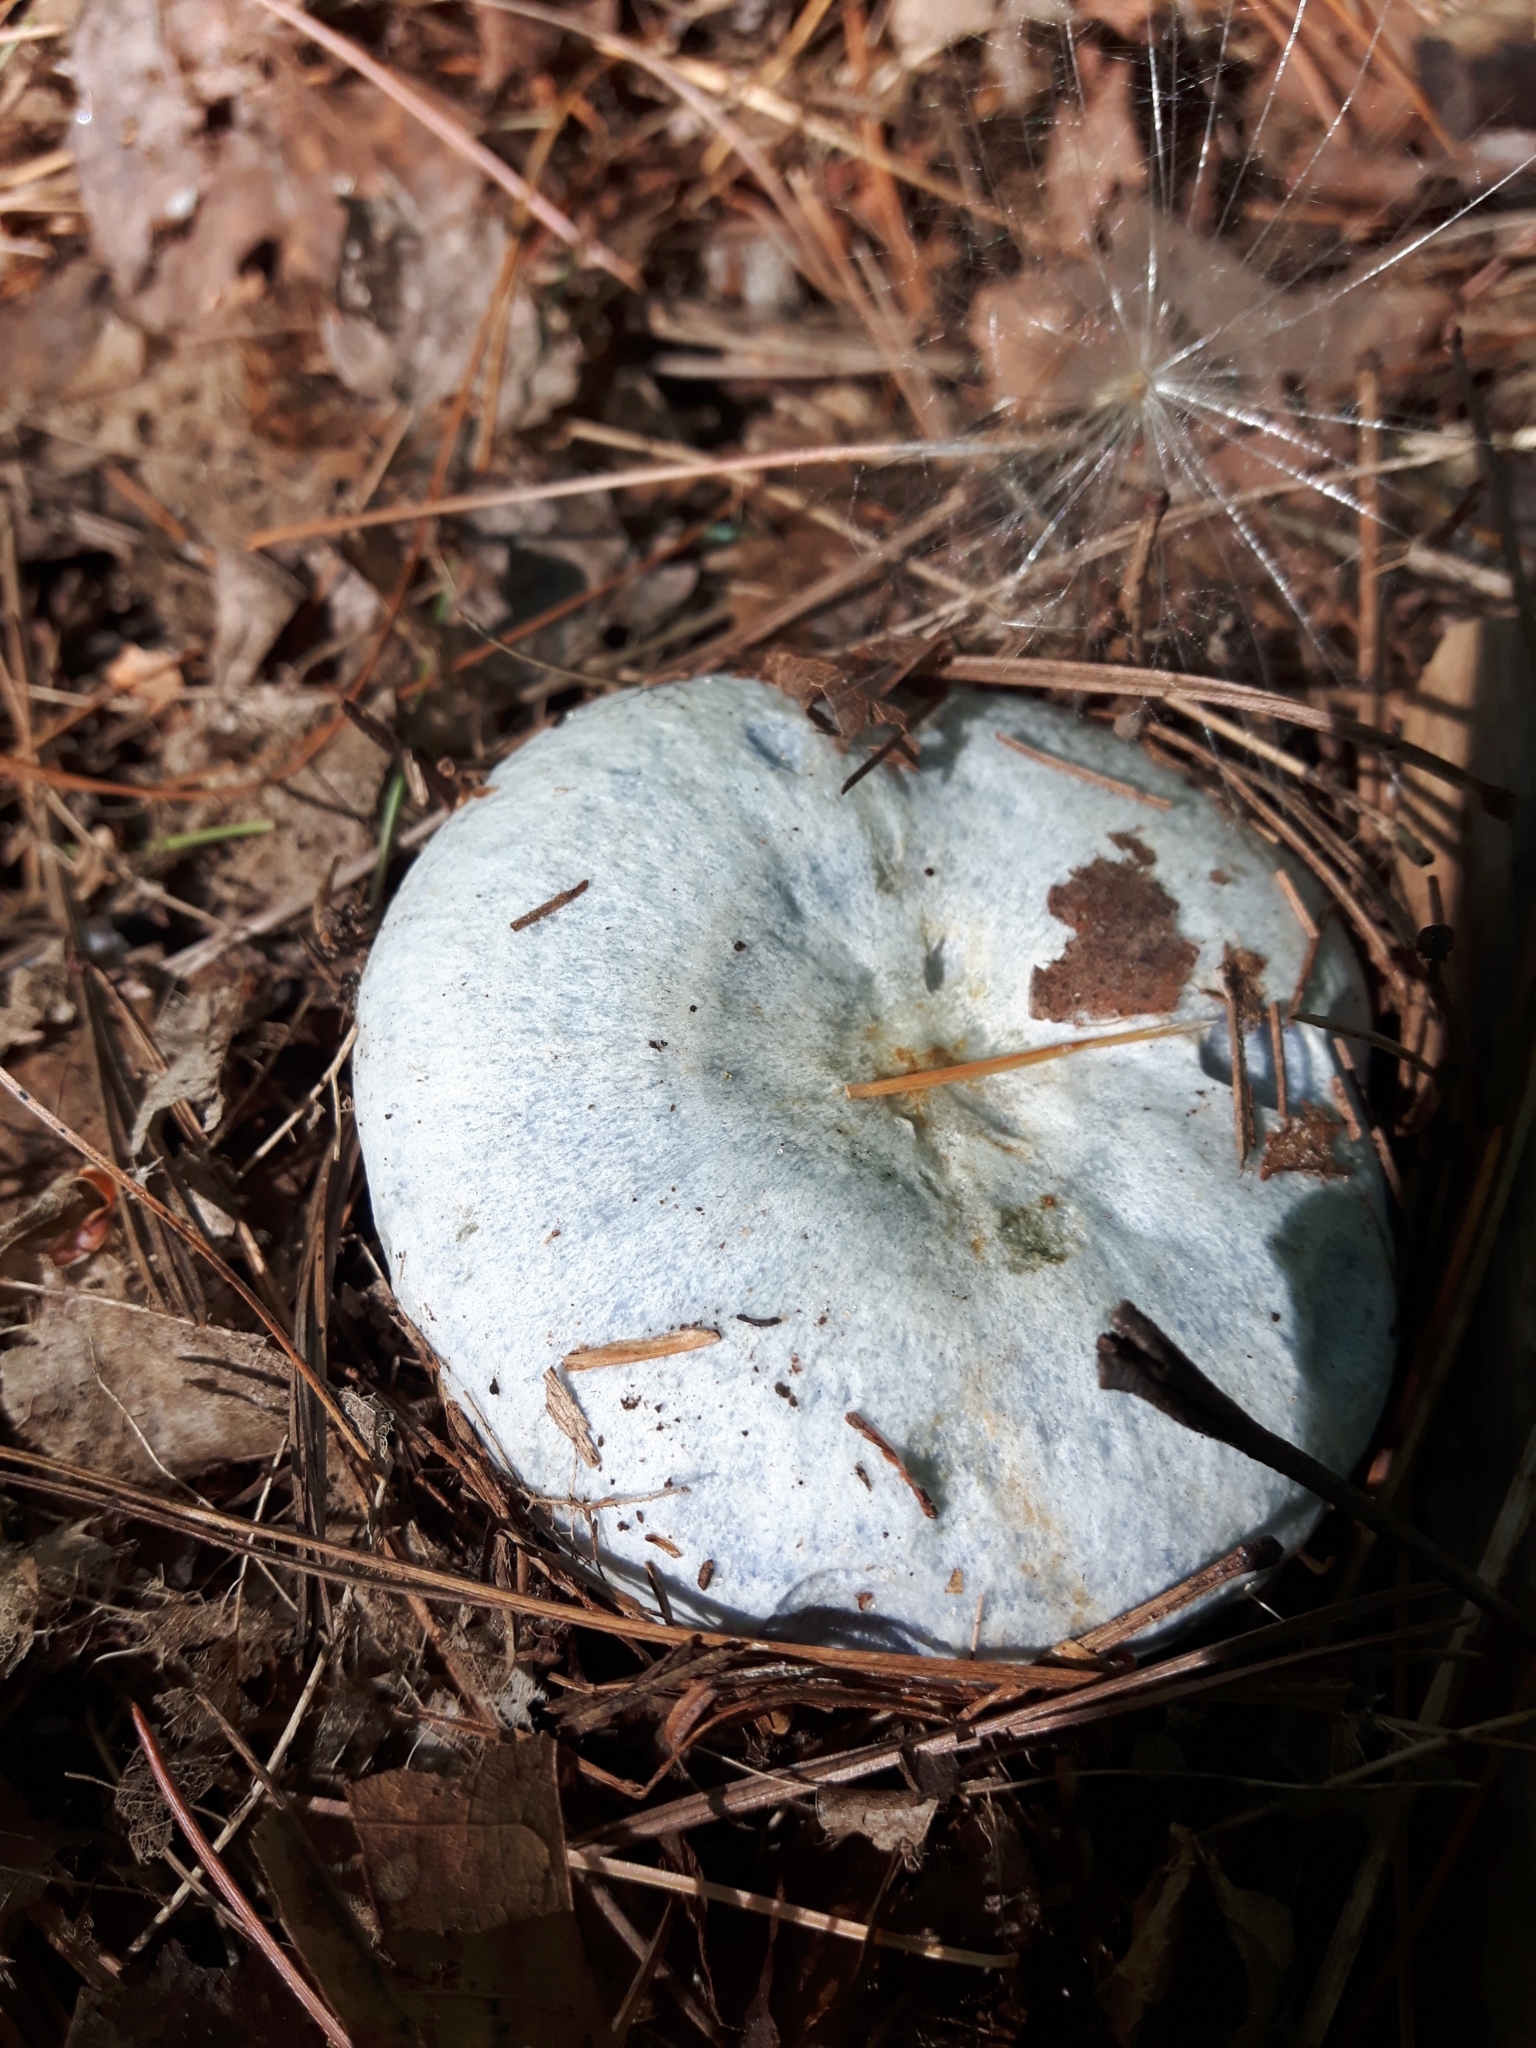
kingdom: Fungi
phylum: Basidiomycota
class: Agaricomycetes
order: Russulales
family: Russulaceae
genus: Lactarius
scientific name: Lactarius indigo
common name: Indigo milk cap
